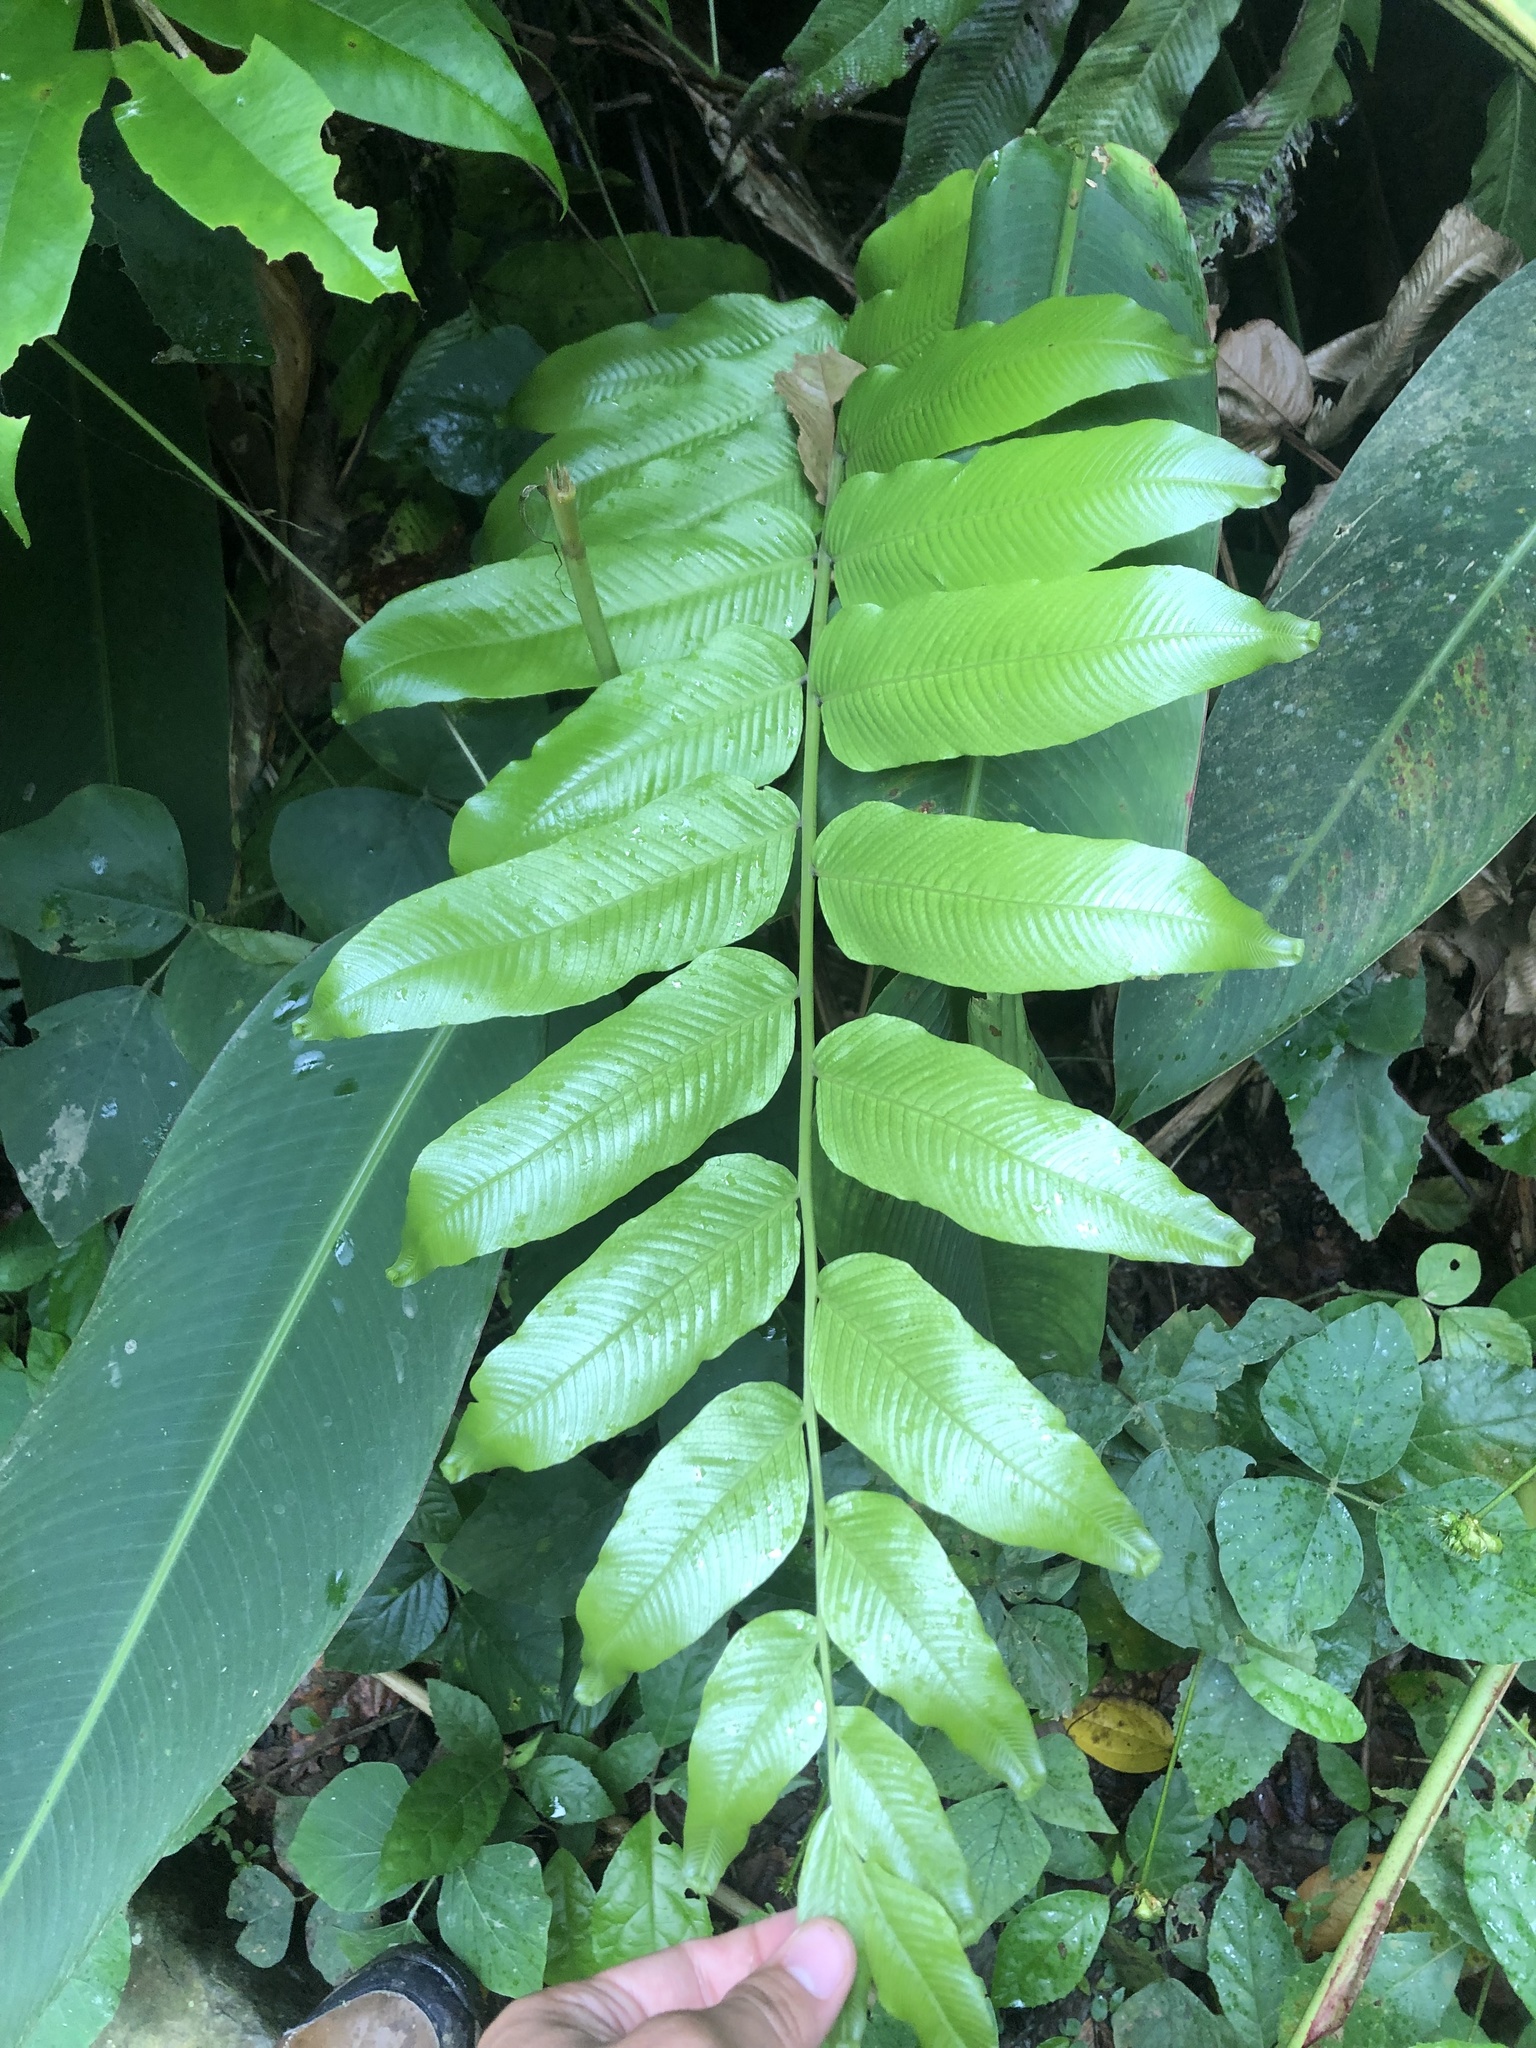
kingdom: Plantae
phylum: Tracheophyta
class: Polypodiopsida
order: Polypodiales
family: Thelypteridaceae
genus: Meniscium
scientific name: Meniscium reticulatum
